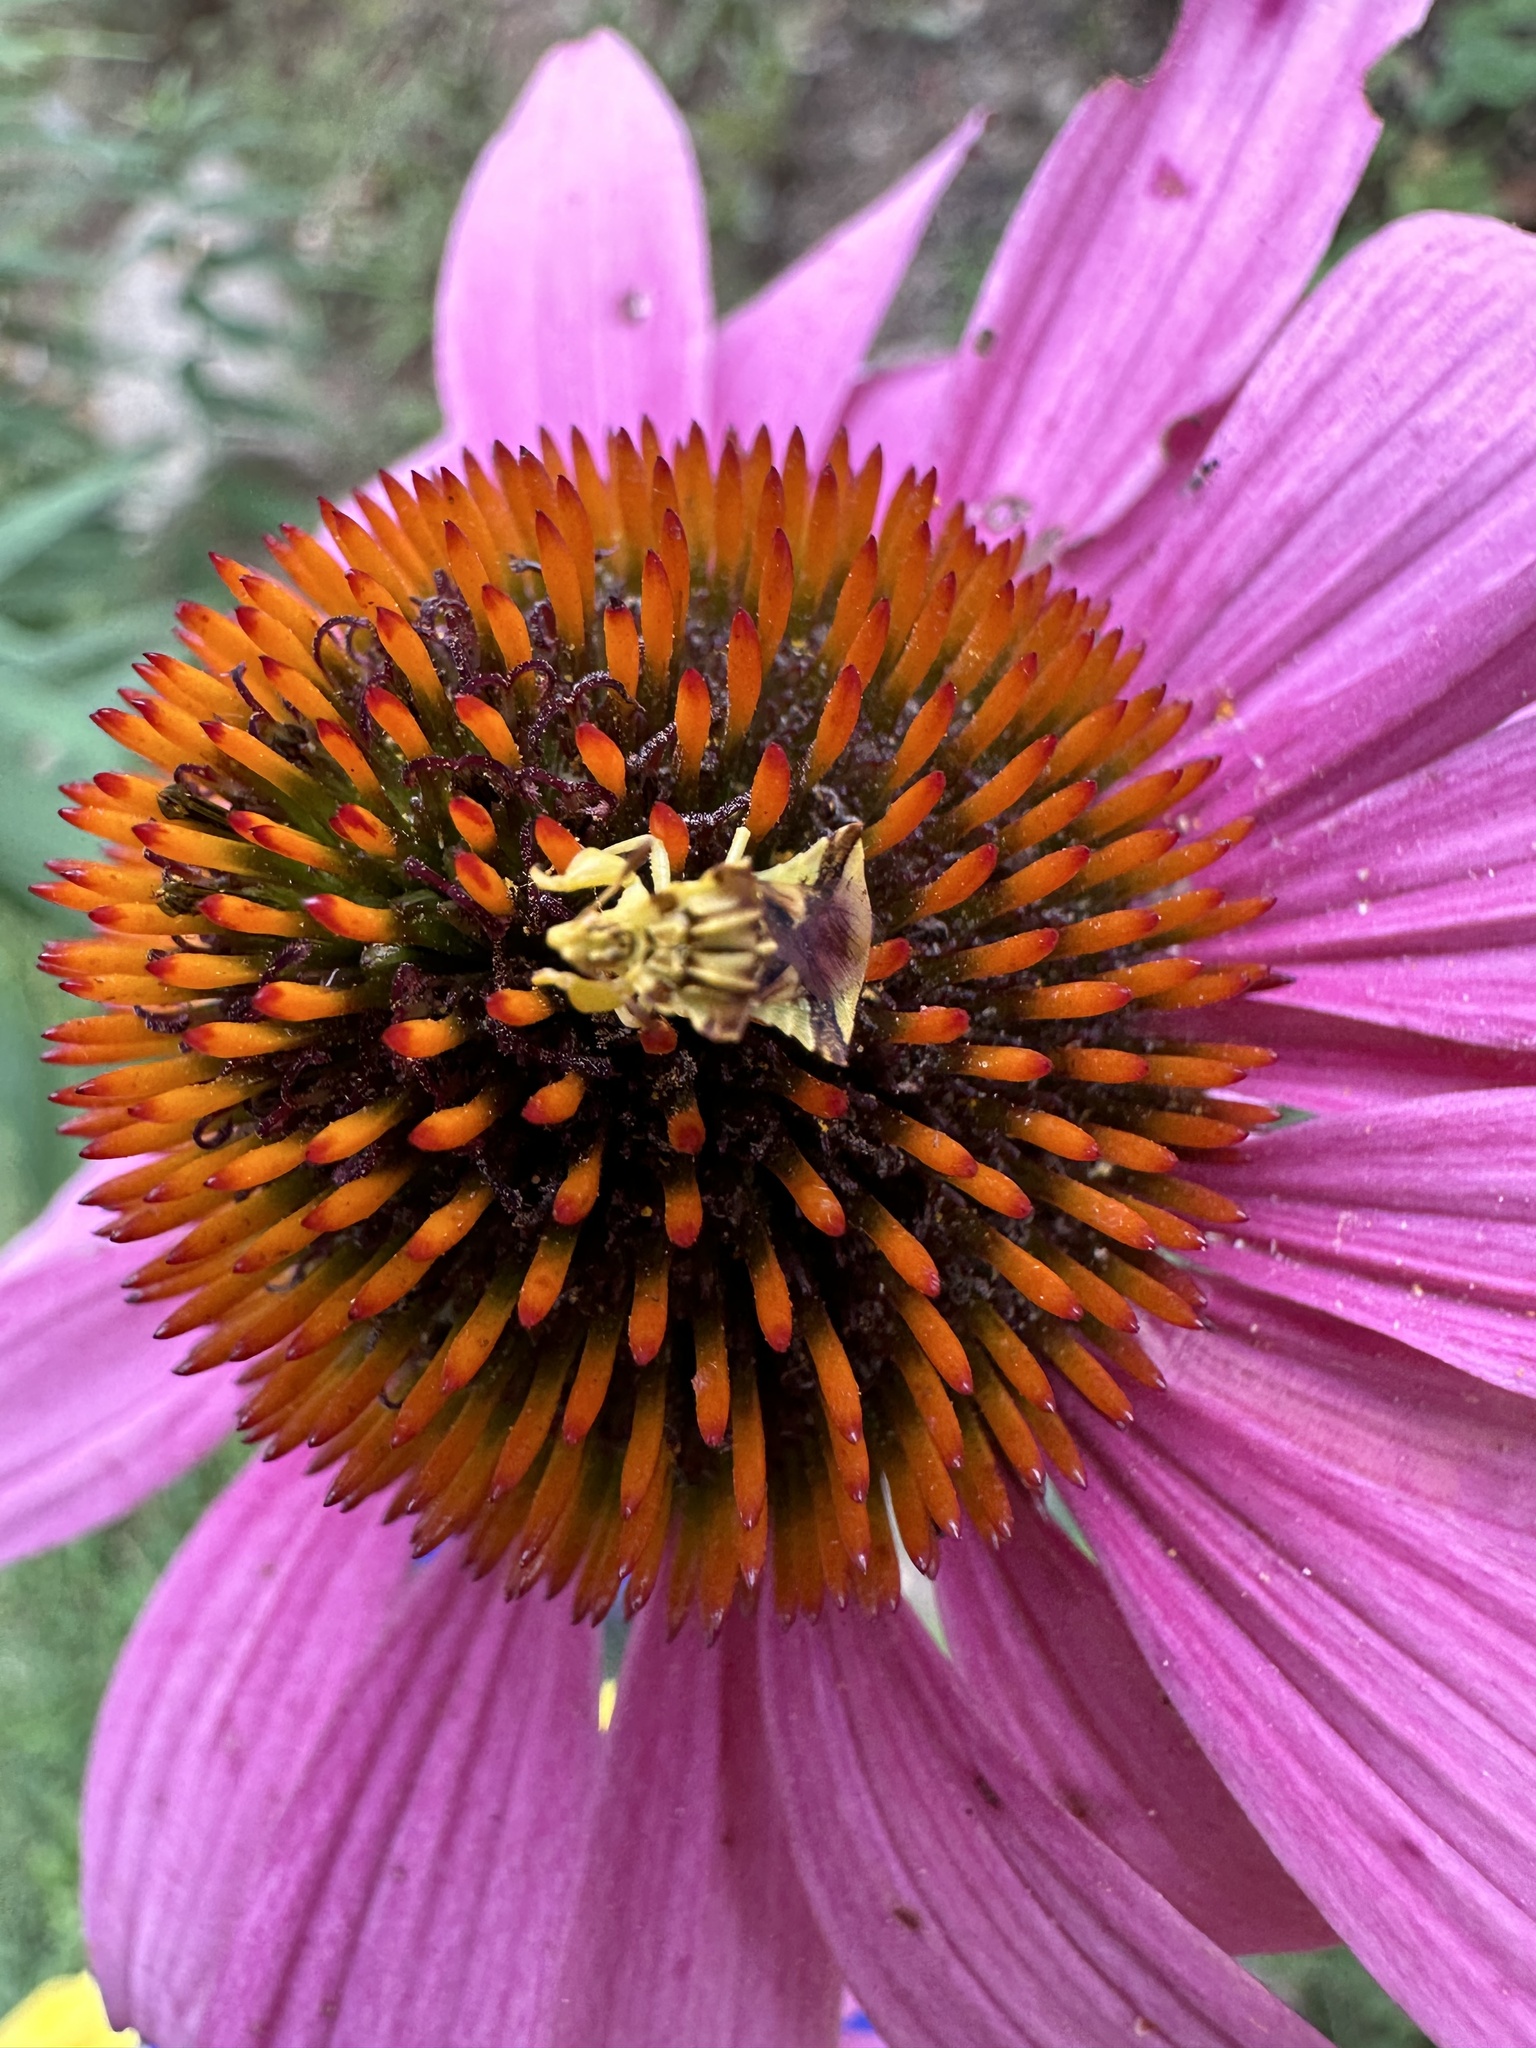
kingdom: Animalia
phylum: Arthropoda
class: Insecta
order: Hemiptera
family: Reduviidae
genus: Phymata
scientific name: Phymata americana
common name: Jagged ambush bug
